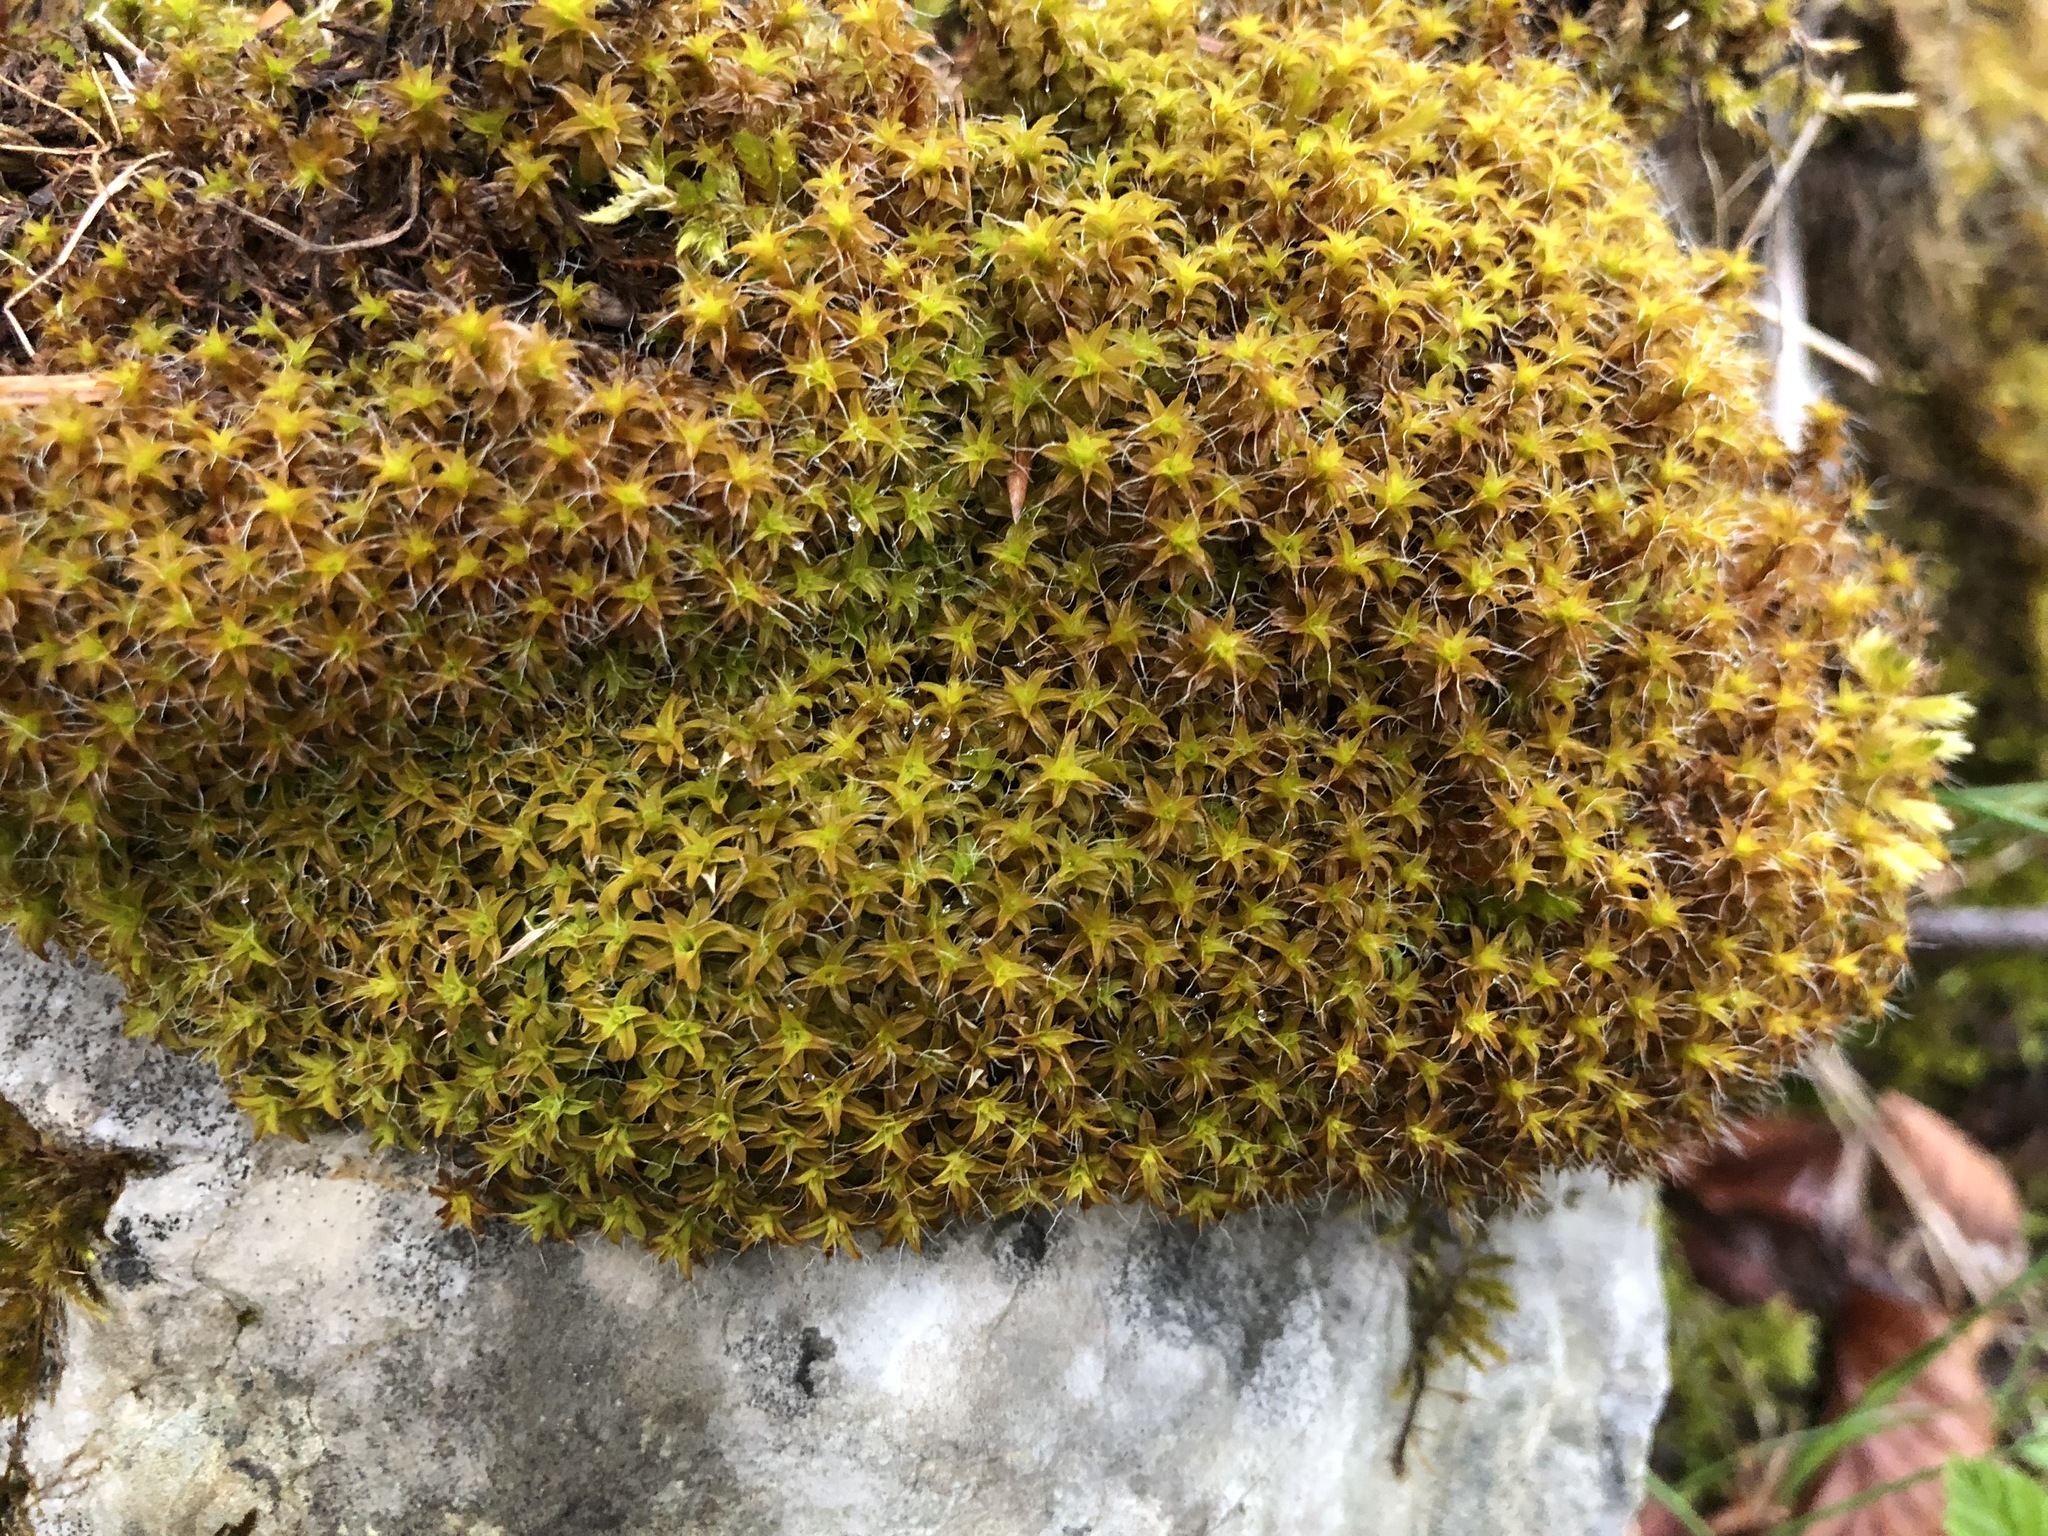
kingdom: Plantae
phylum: Bryophyta
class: Bryopsida
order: Pottiales
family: Pottiaceae
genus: Syntrichia
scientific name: Syntrichia ruralis
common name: Sidewalk screw moss
